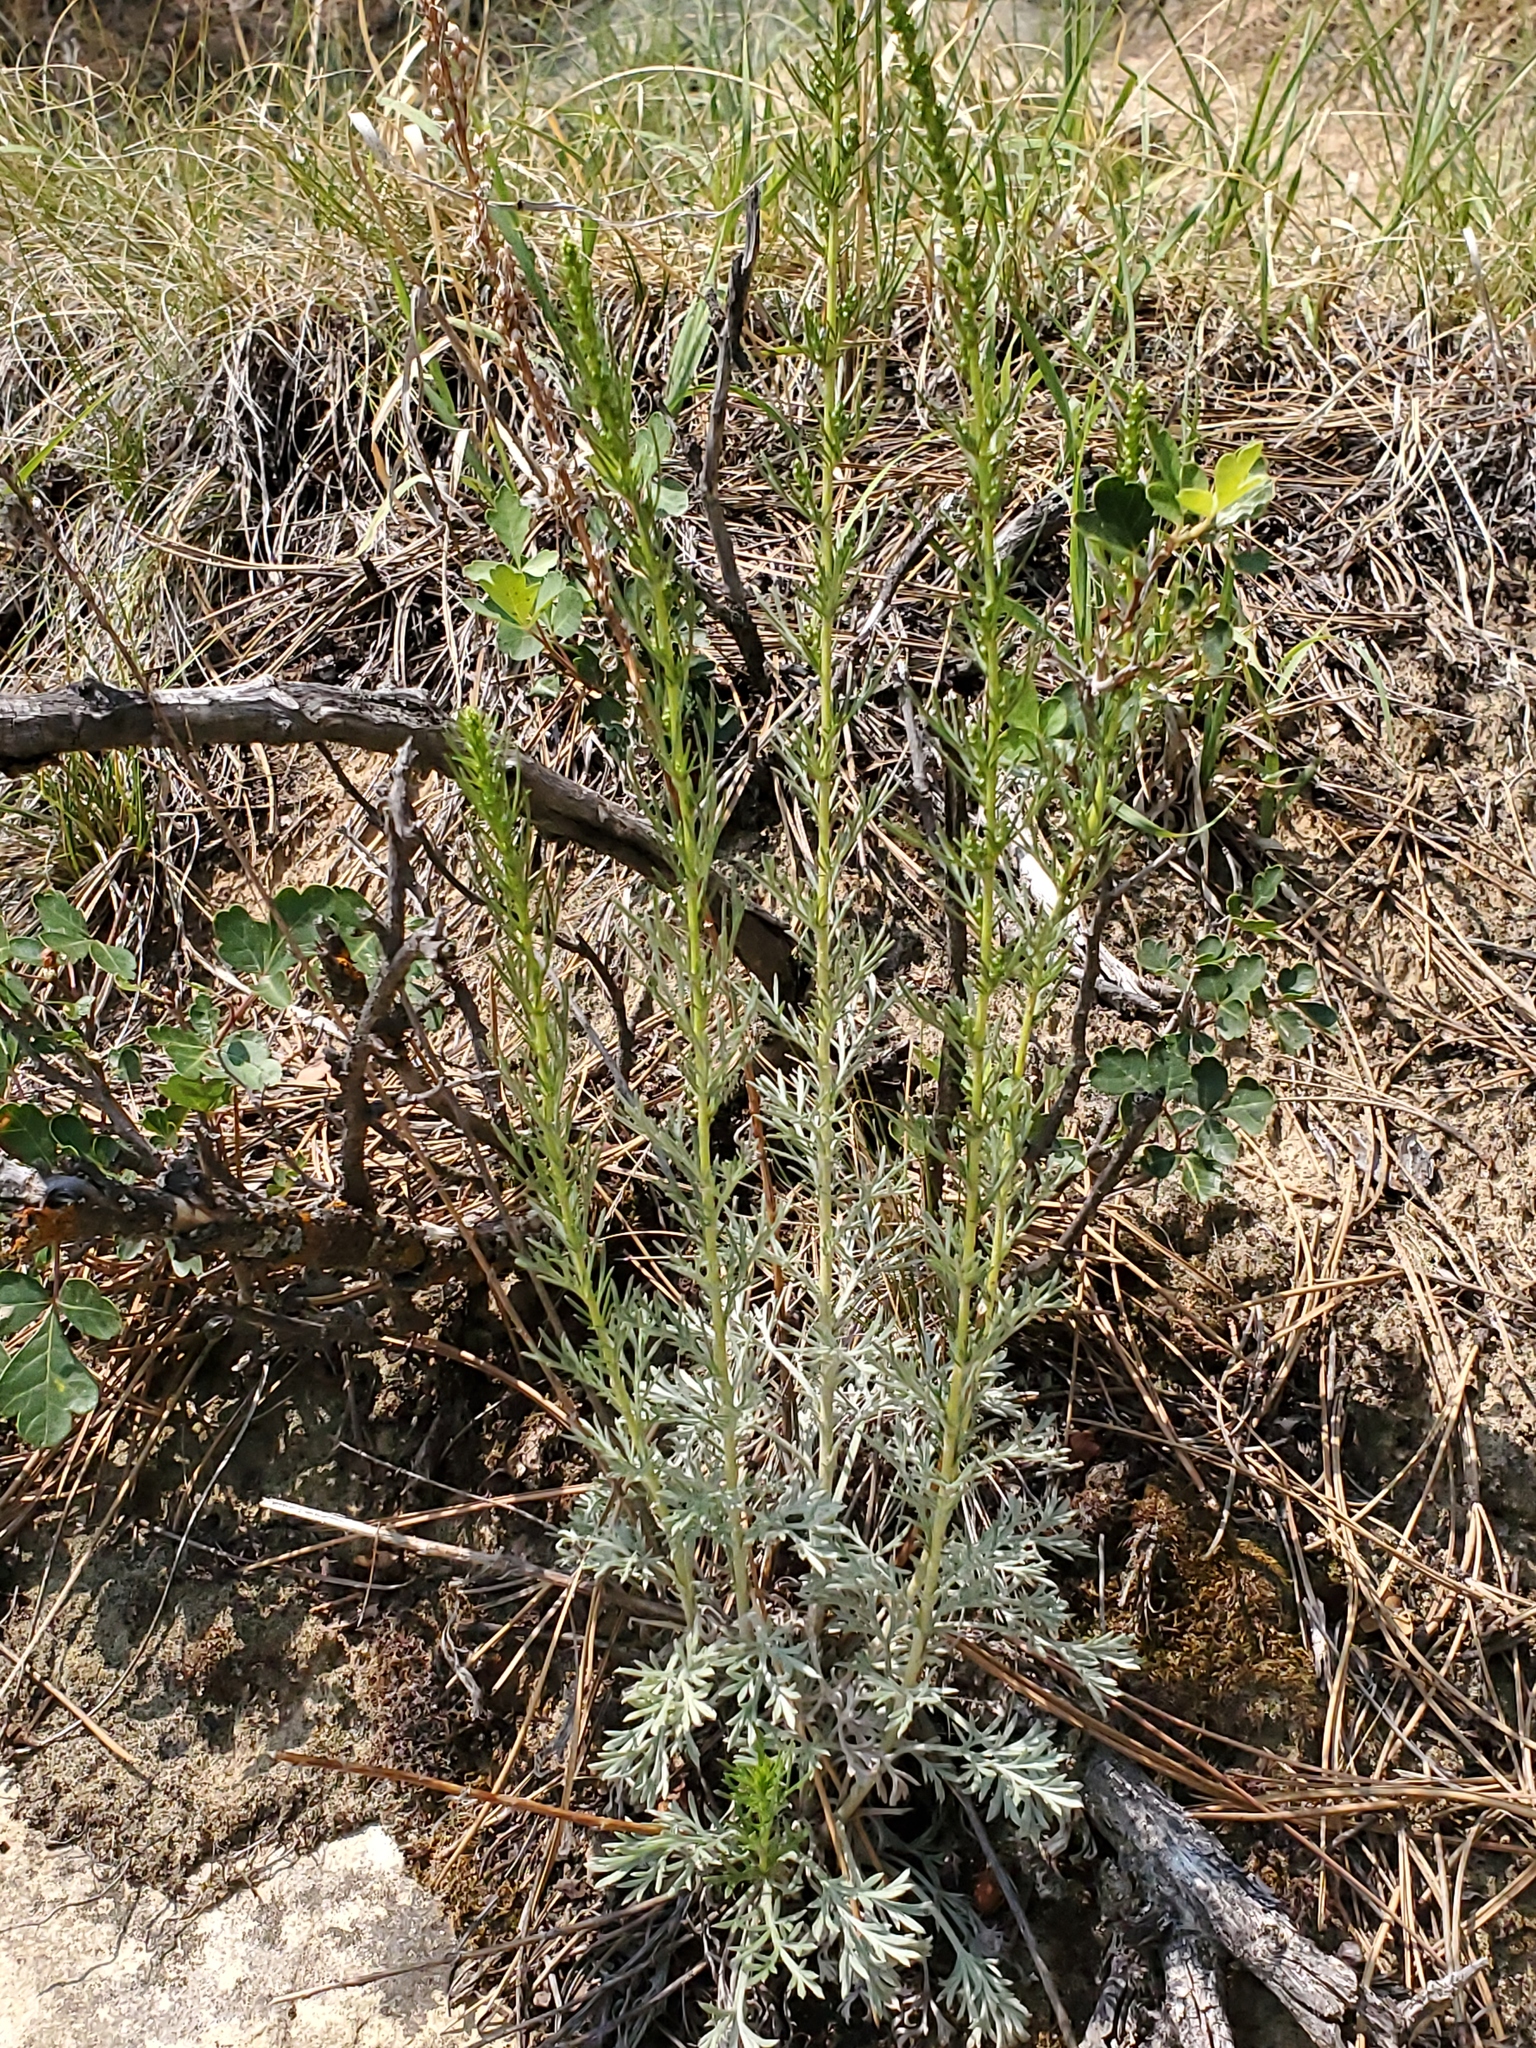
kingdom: Plantae
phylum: Tracheophyta
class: Magnoliopsida
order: Asterales
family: Asteraceae
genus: Artemisia
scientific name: Artemisia campestris
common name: Field wormwood
